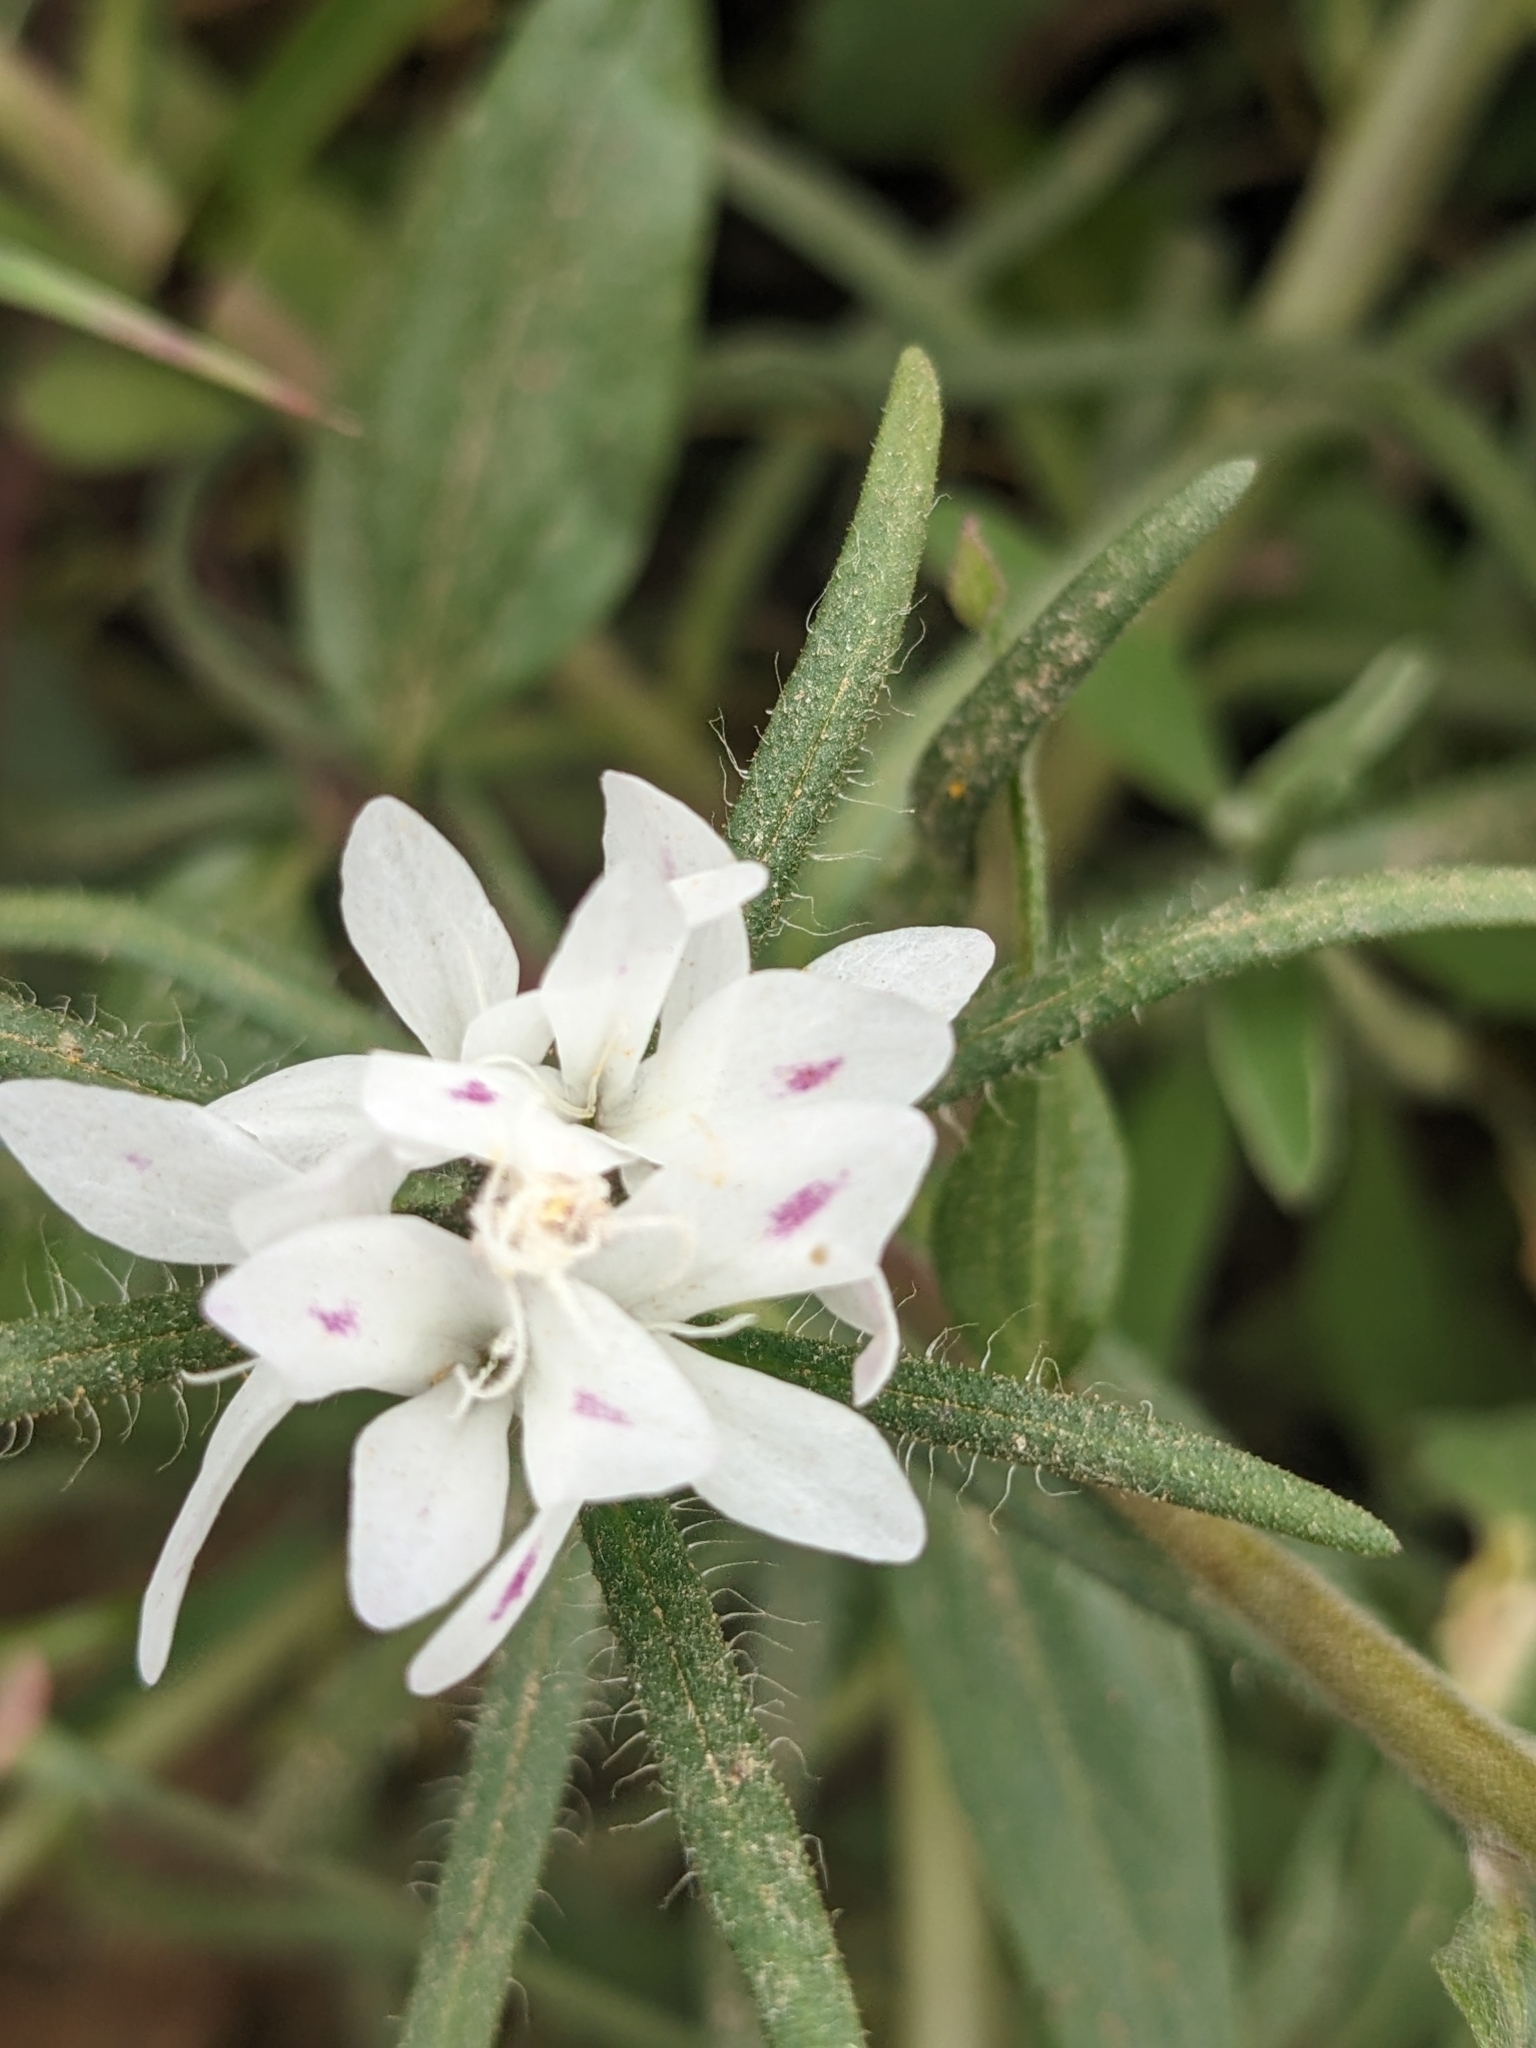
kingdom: Plantae
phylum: Tracheophyta
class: Magnoliopsida
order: Asterales
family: Asteraceae
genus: Osmadenia
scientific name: Osmadenia tenella
